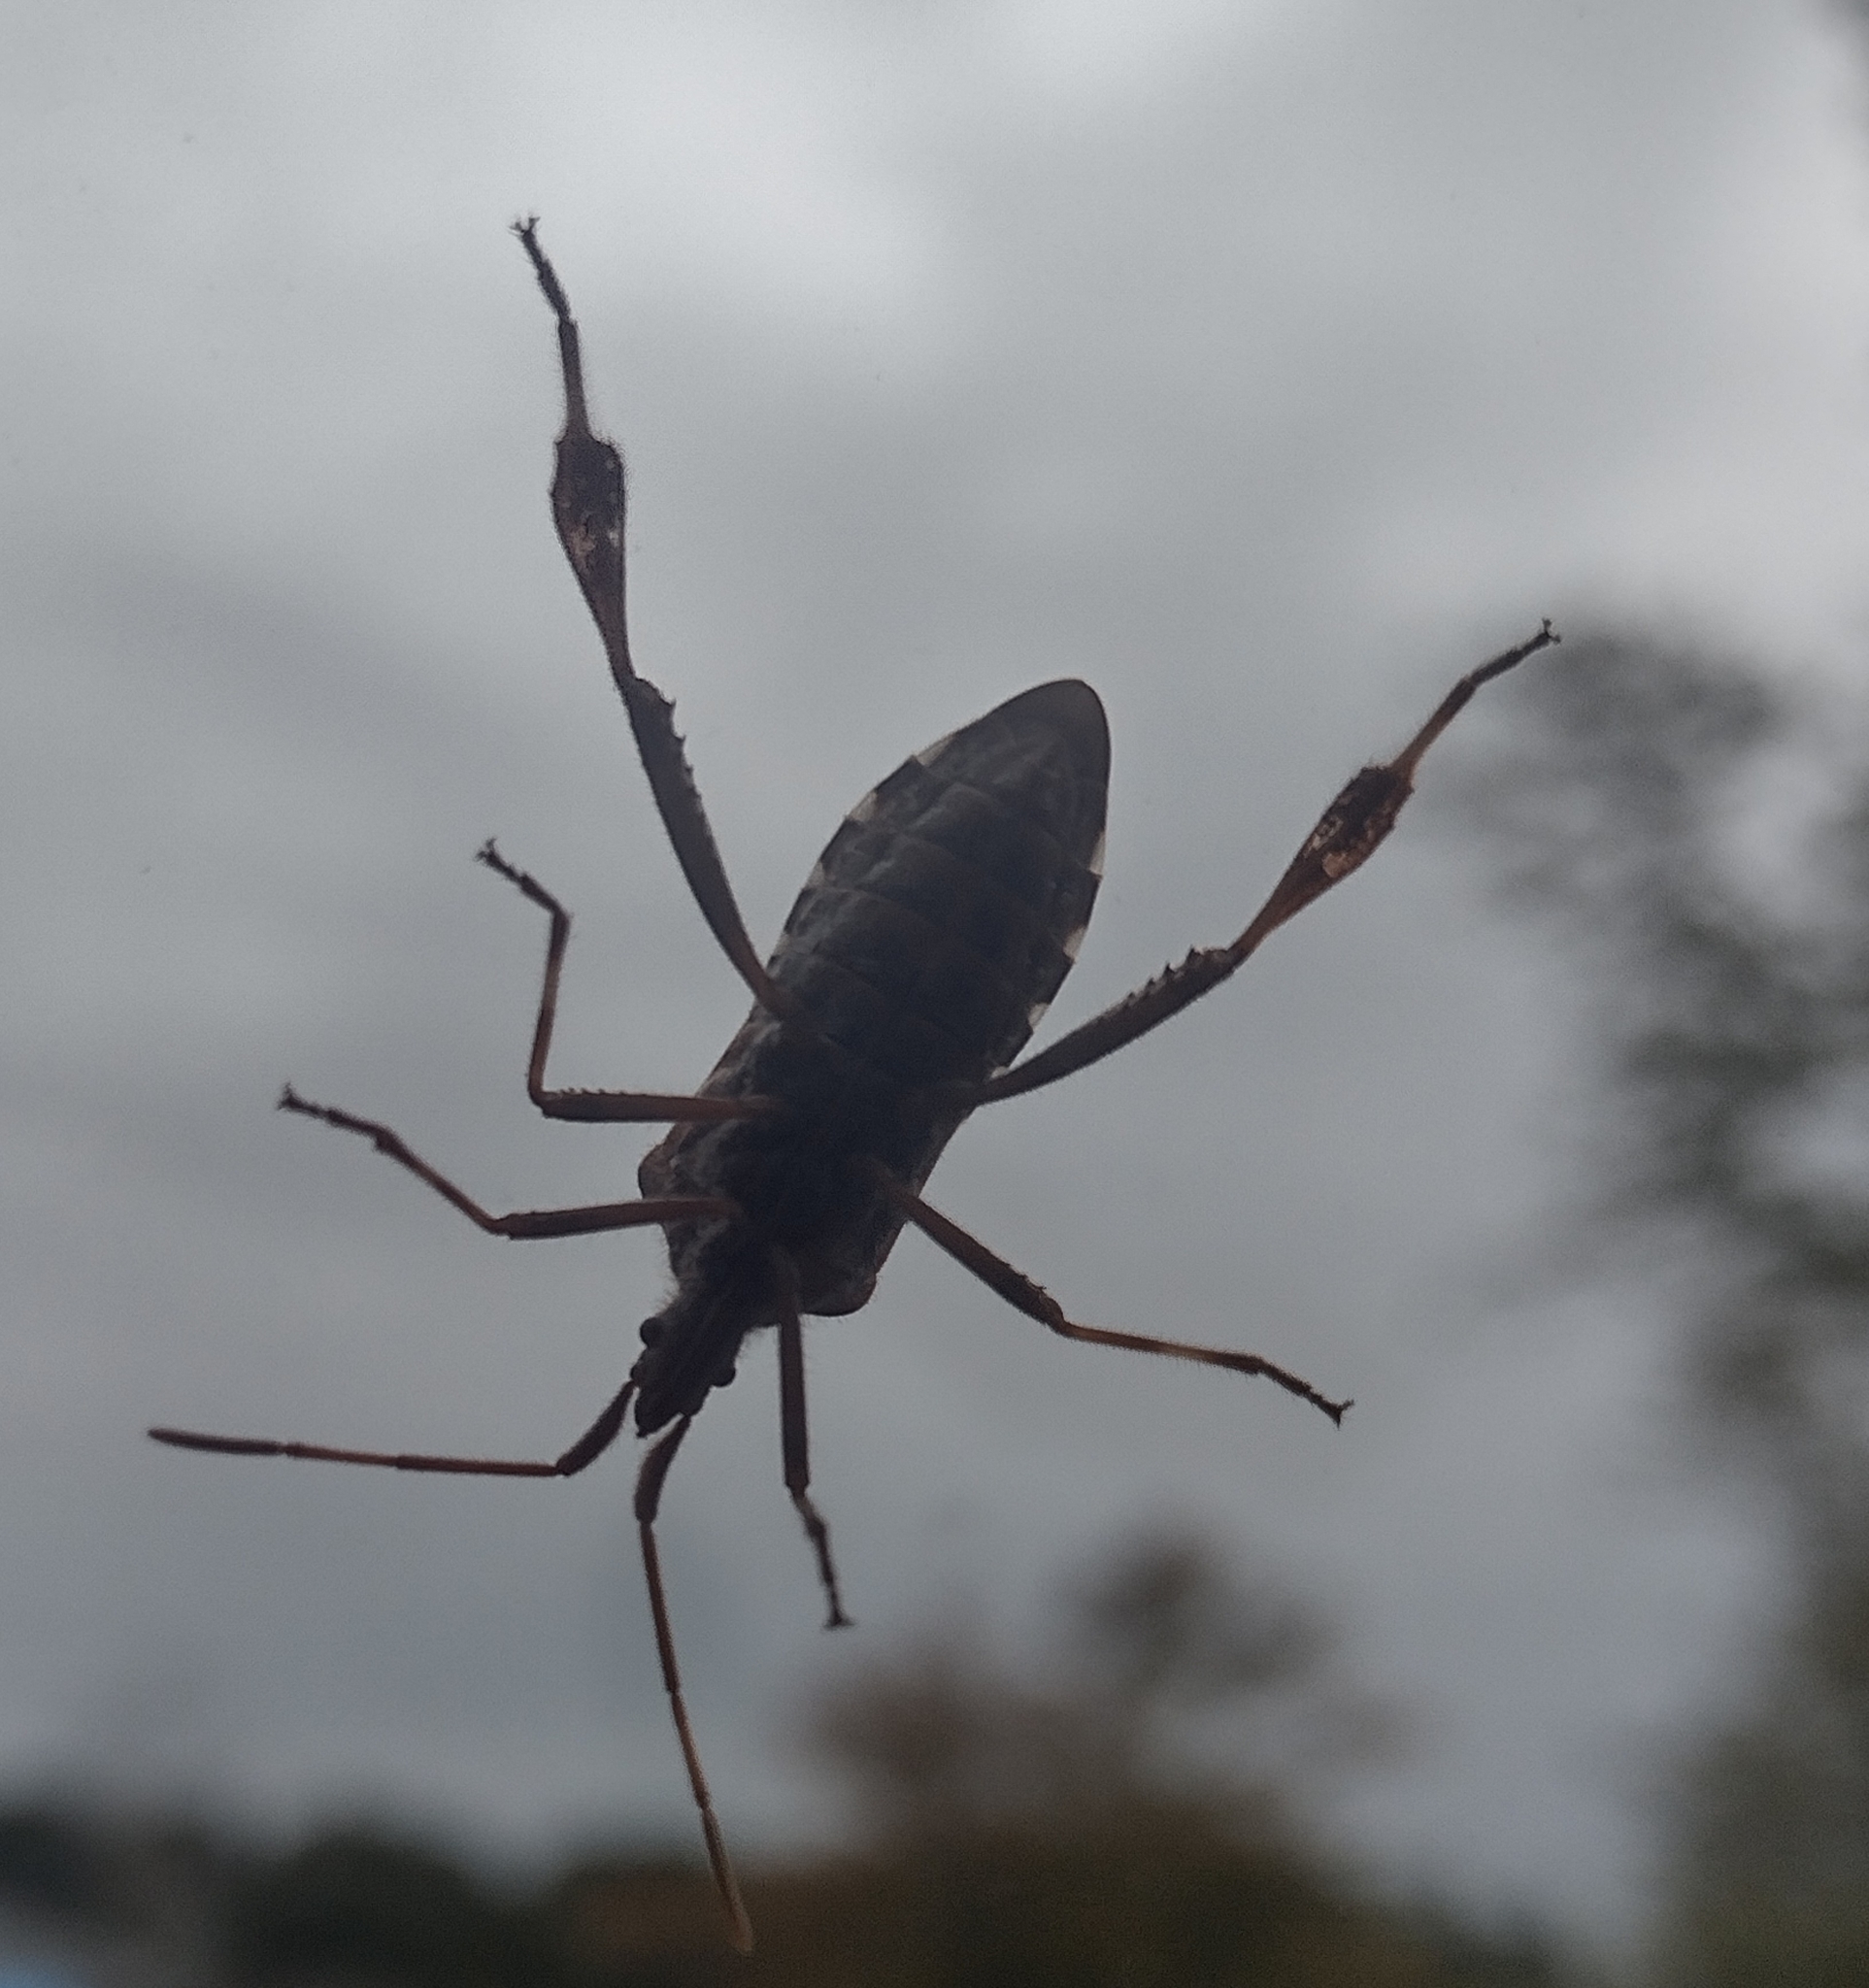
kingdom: Animalia
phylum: Arthropoda
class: Insecta
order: Hemiptera
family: Coreidae
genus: Leptoglossus
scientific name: Leptoglossus occidentalis
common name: Western conifer-seed bug
